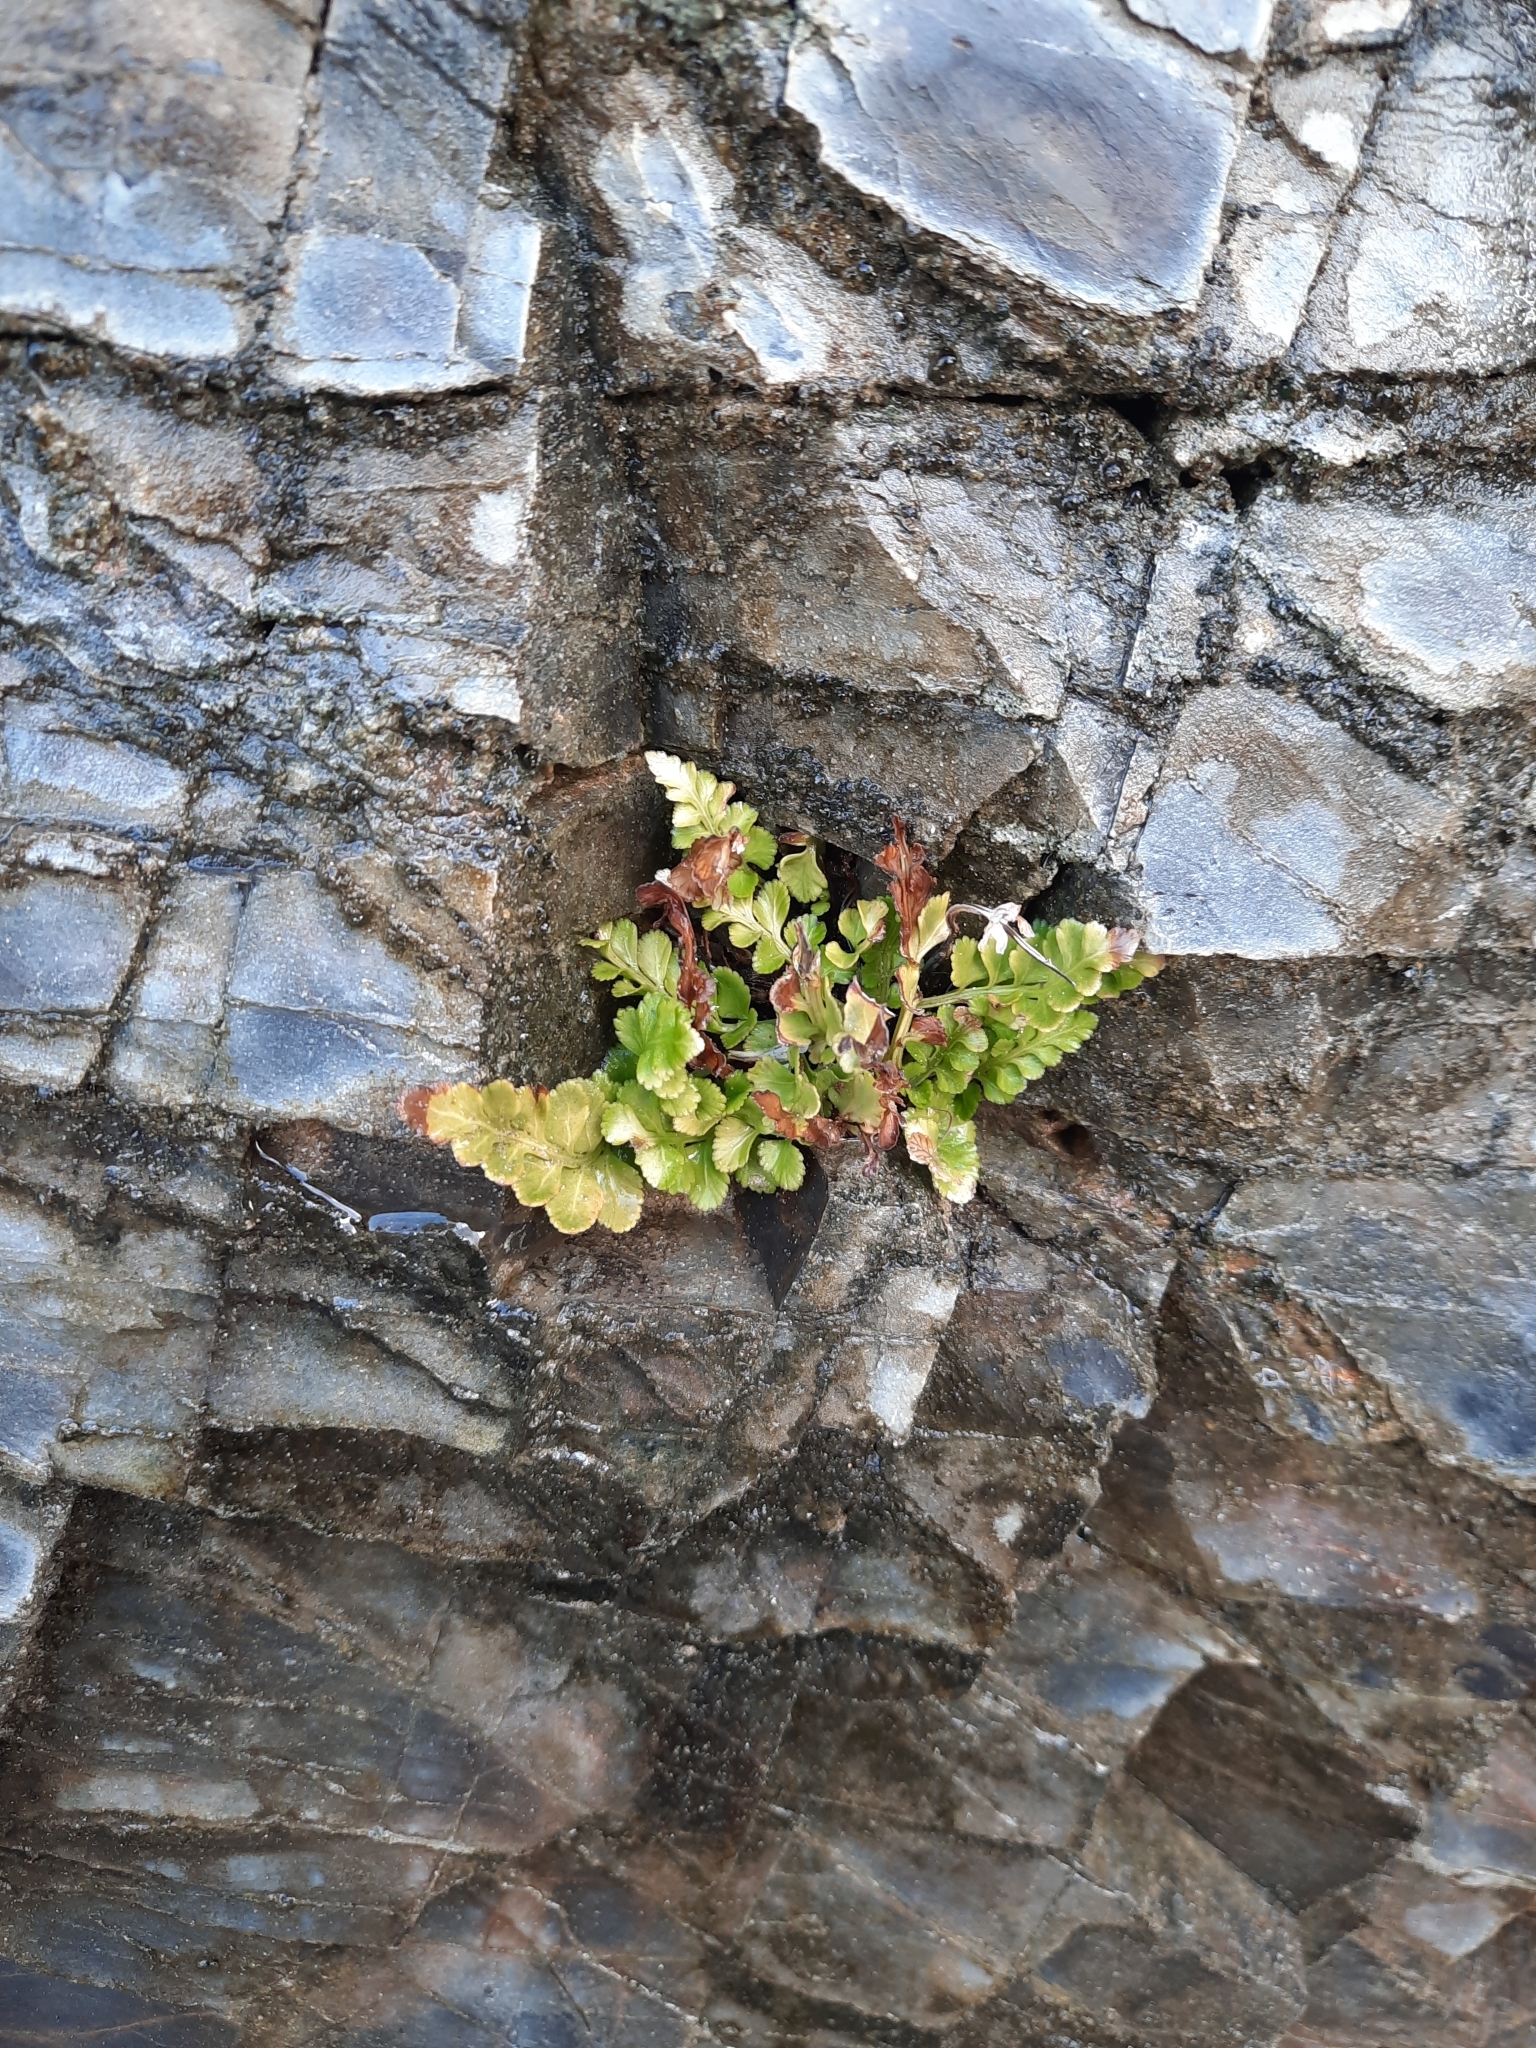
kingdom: Plantae
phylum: Tracheophyta
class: Polypodiopsida
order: Polypodiales
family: Aspleniaceae
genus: Asplenium
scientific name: Asplenium marinum
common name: Sea spleenwort
